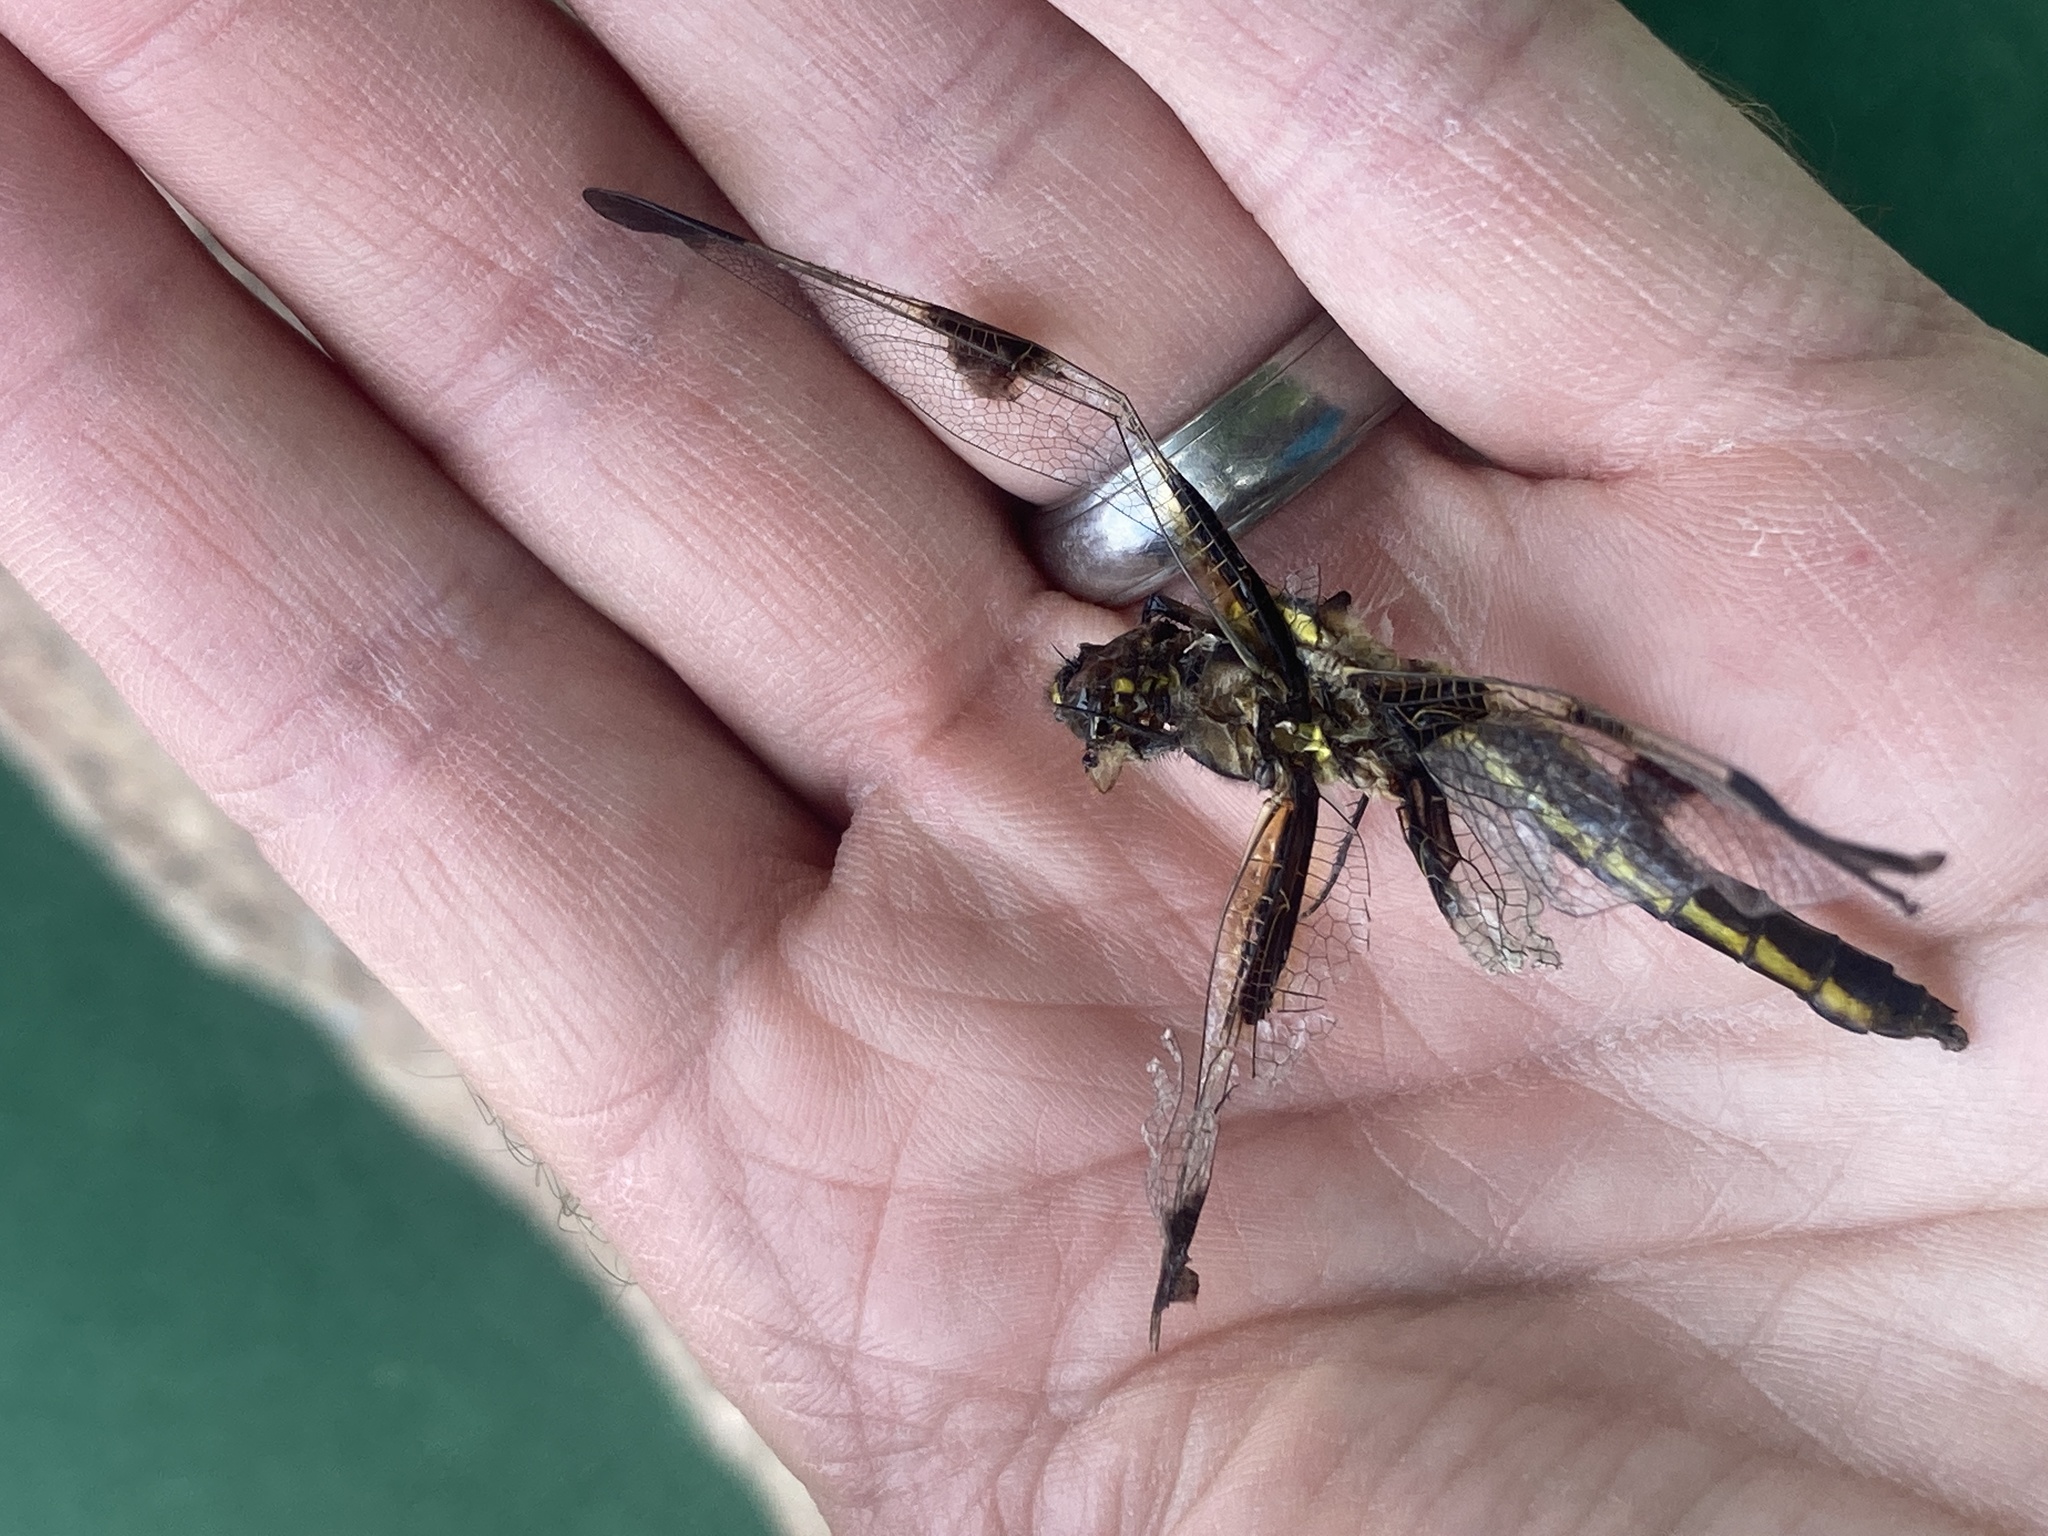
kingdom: Animalia
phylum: Arthropoda
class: Insecta
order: Odonata
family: Libellulidae
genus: Libellula
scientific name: Libellula pulchella
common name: Twelve-spotted skimmer
